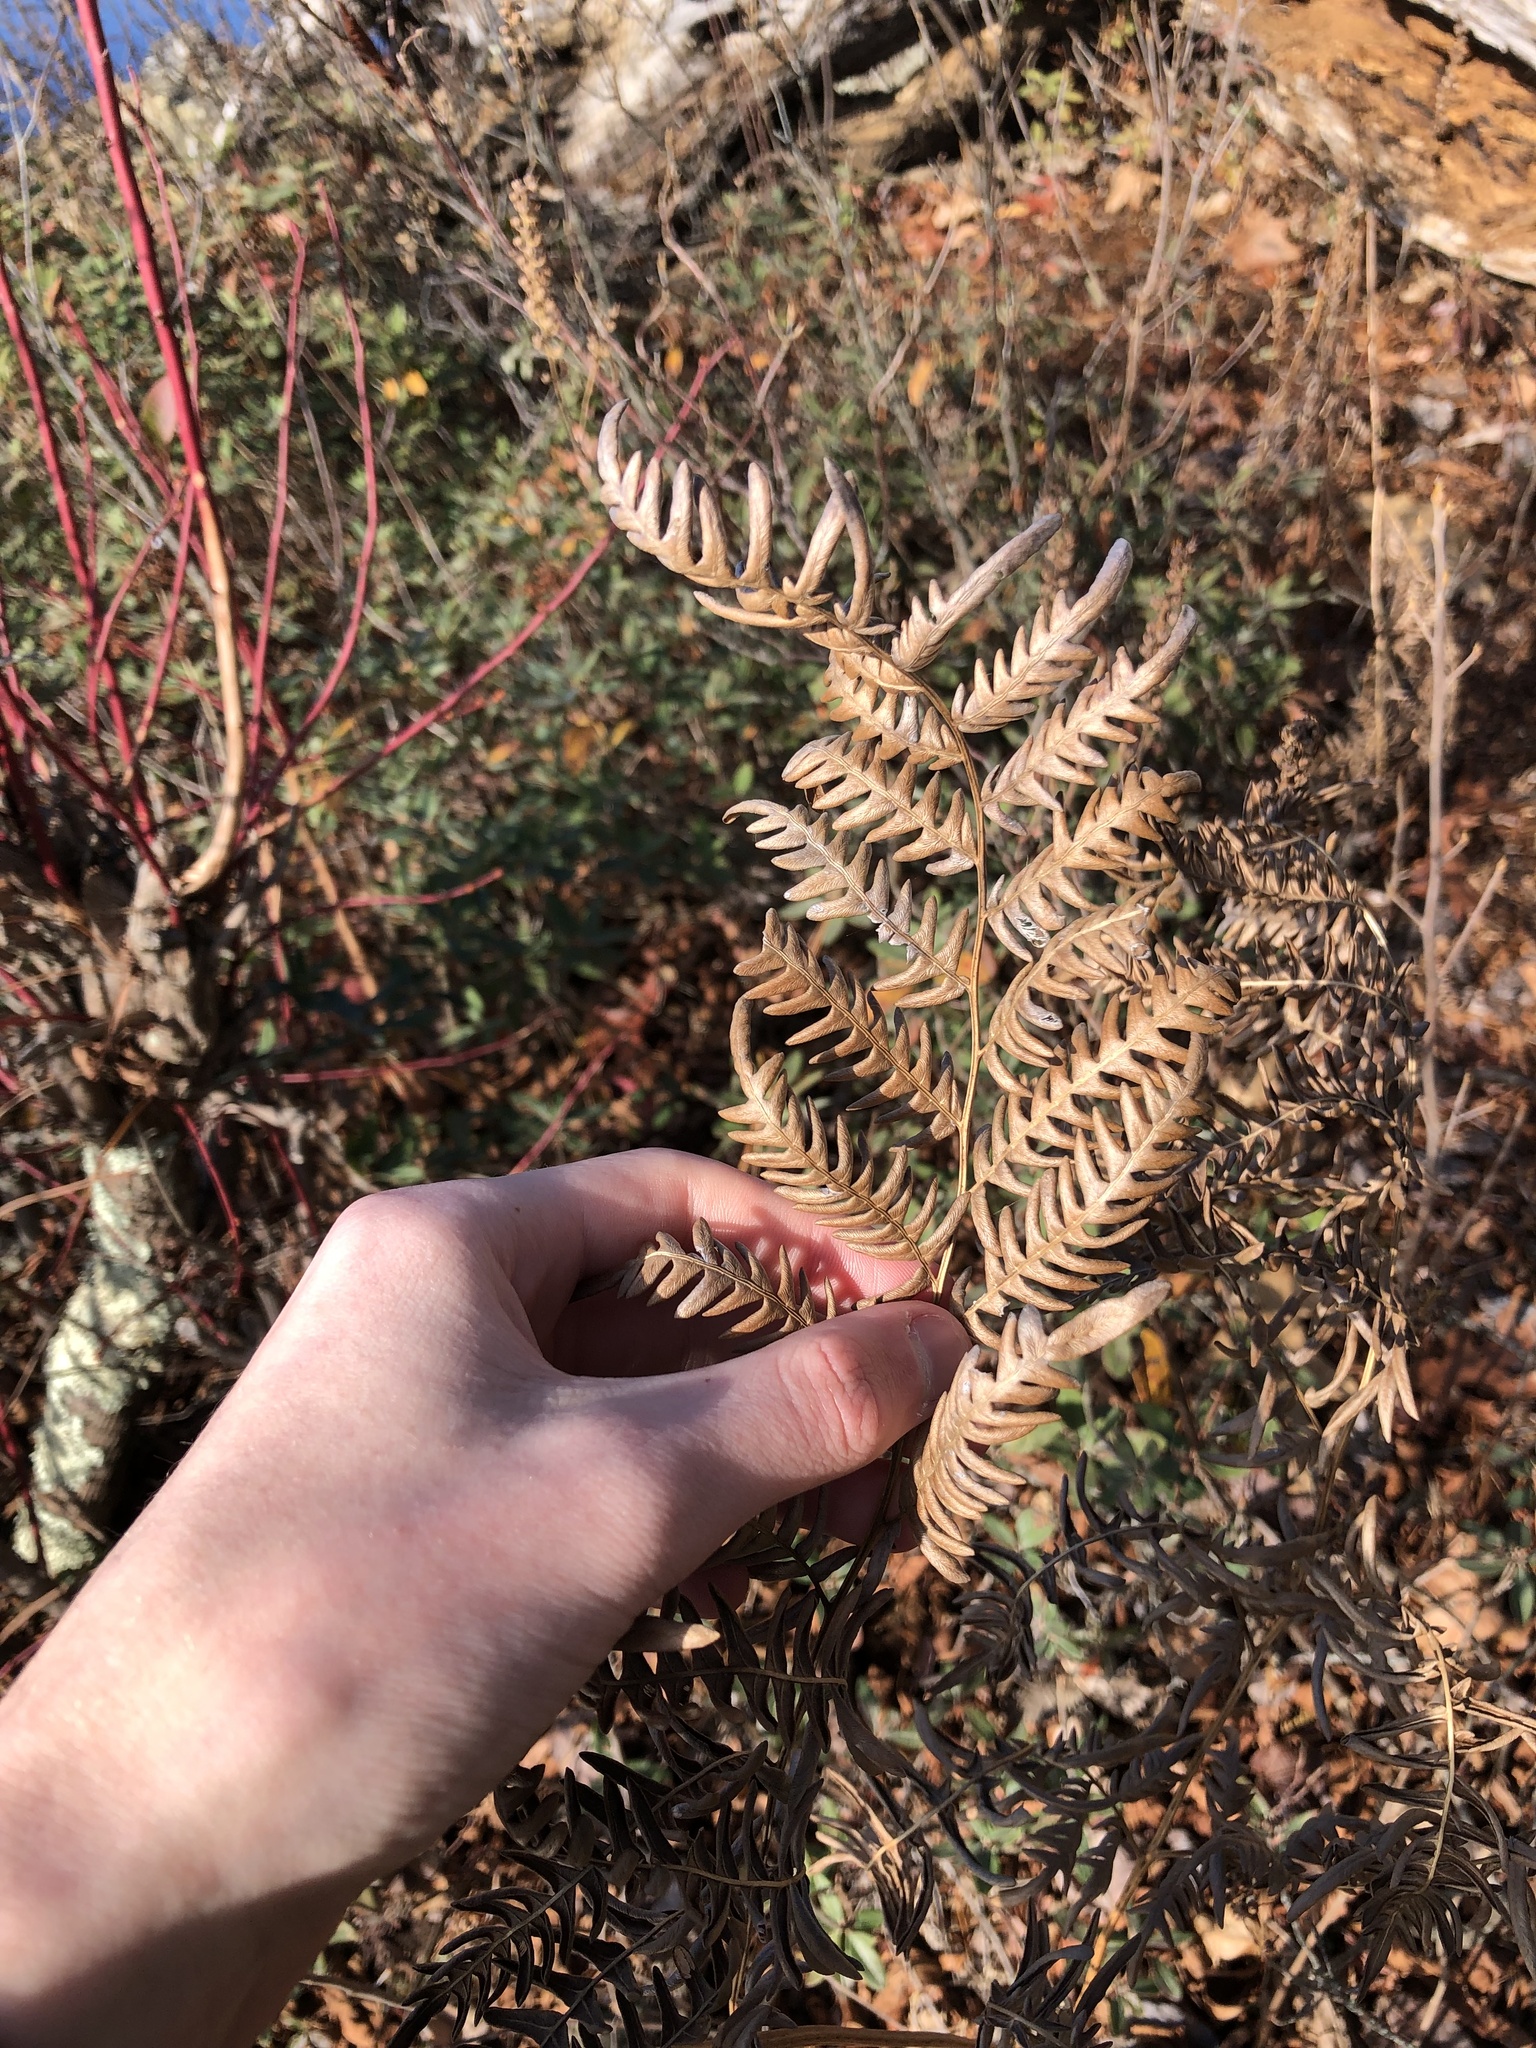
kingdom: Plantae
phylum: Tracheophyta
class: Polypodiopsida
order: Polypodiales
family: Dennstaedtiaceae
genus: Pteridium
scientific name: Pteridium aquilinum
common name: Bracken
